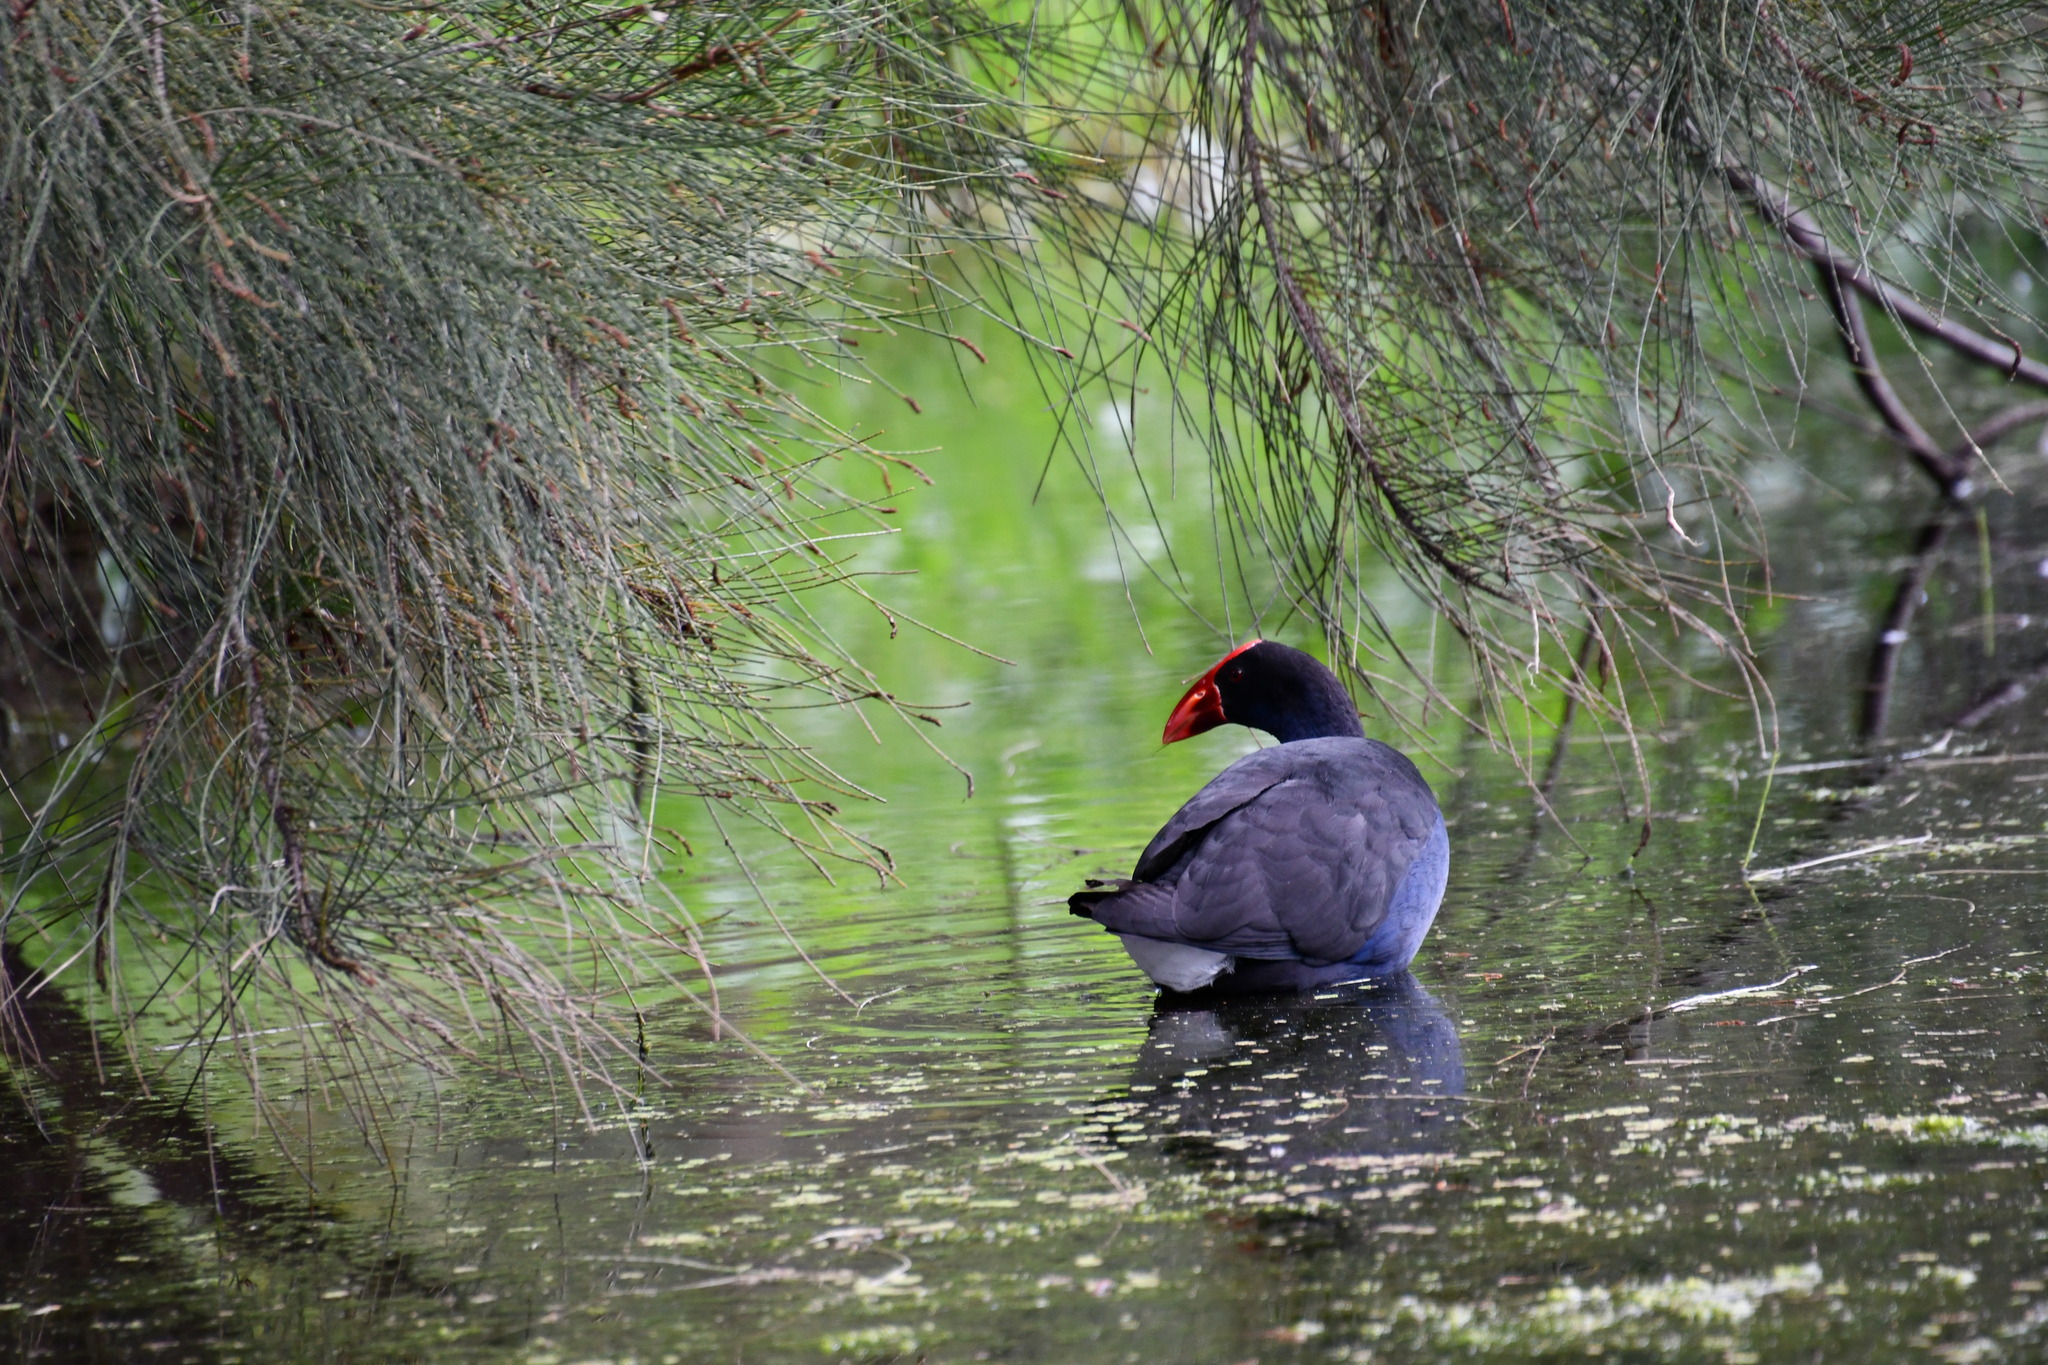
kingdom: Animalia
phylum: Chordata
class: Aves
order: Gruiformes
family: Rallidae
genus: Porphyrio
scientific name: Porphyrio melanotus
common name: Australasian swamphen
